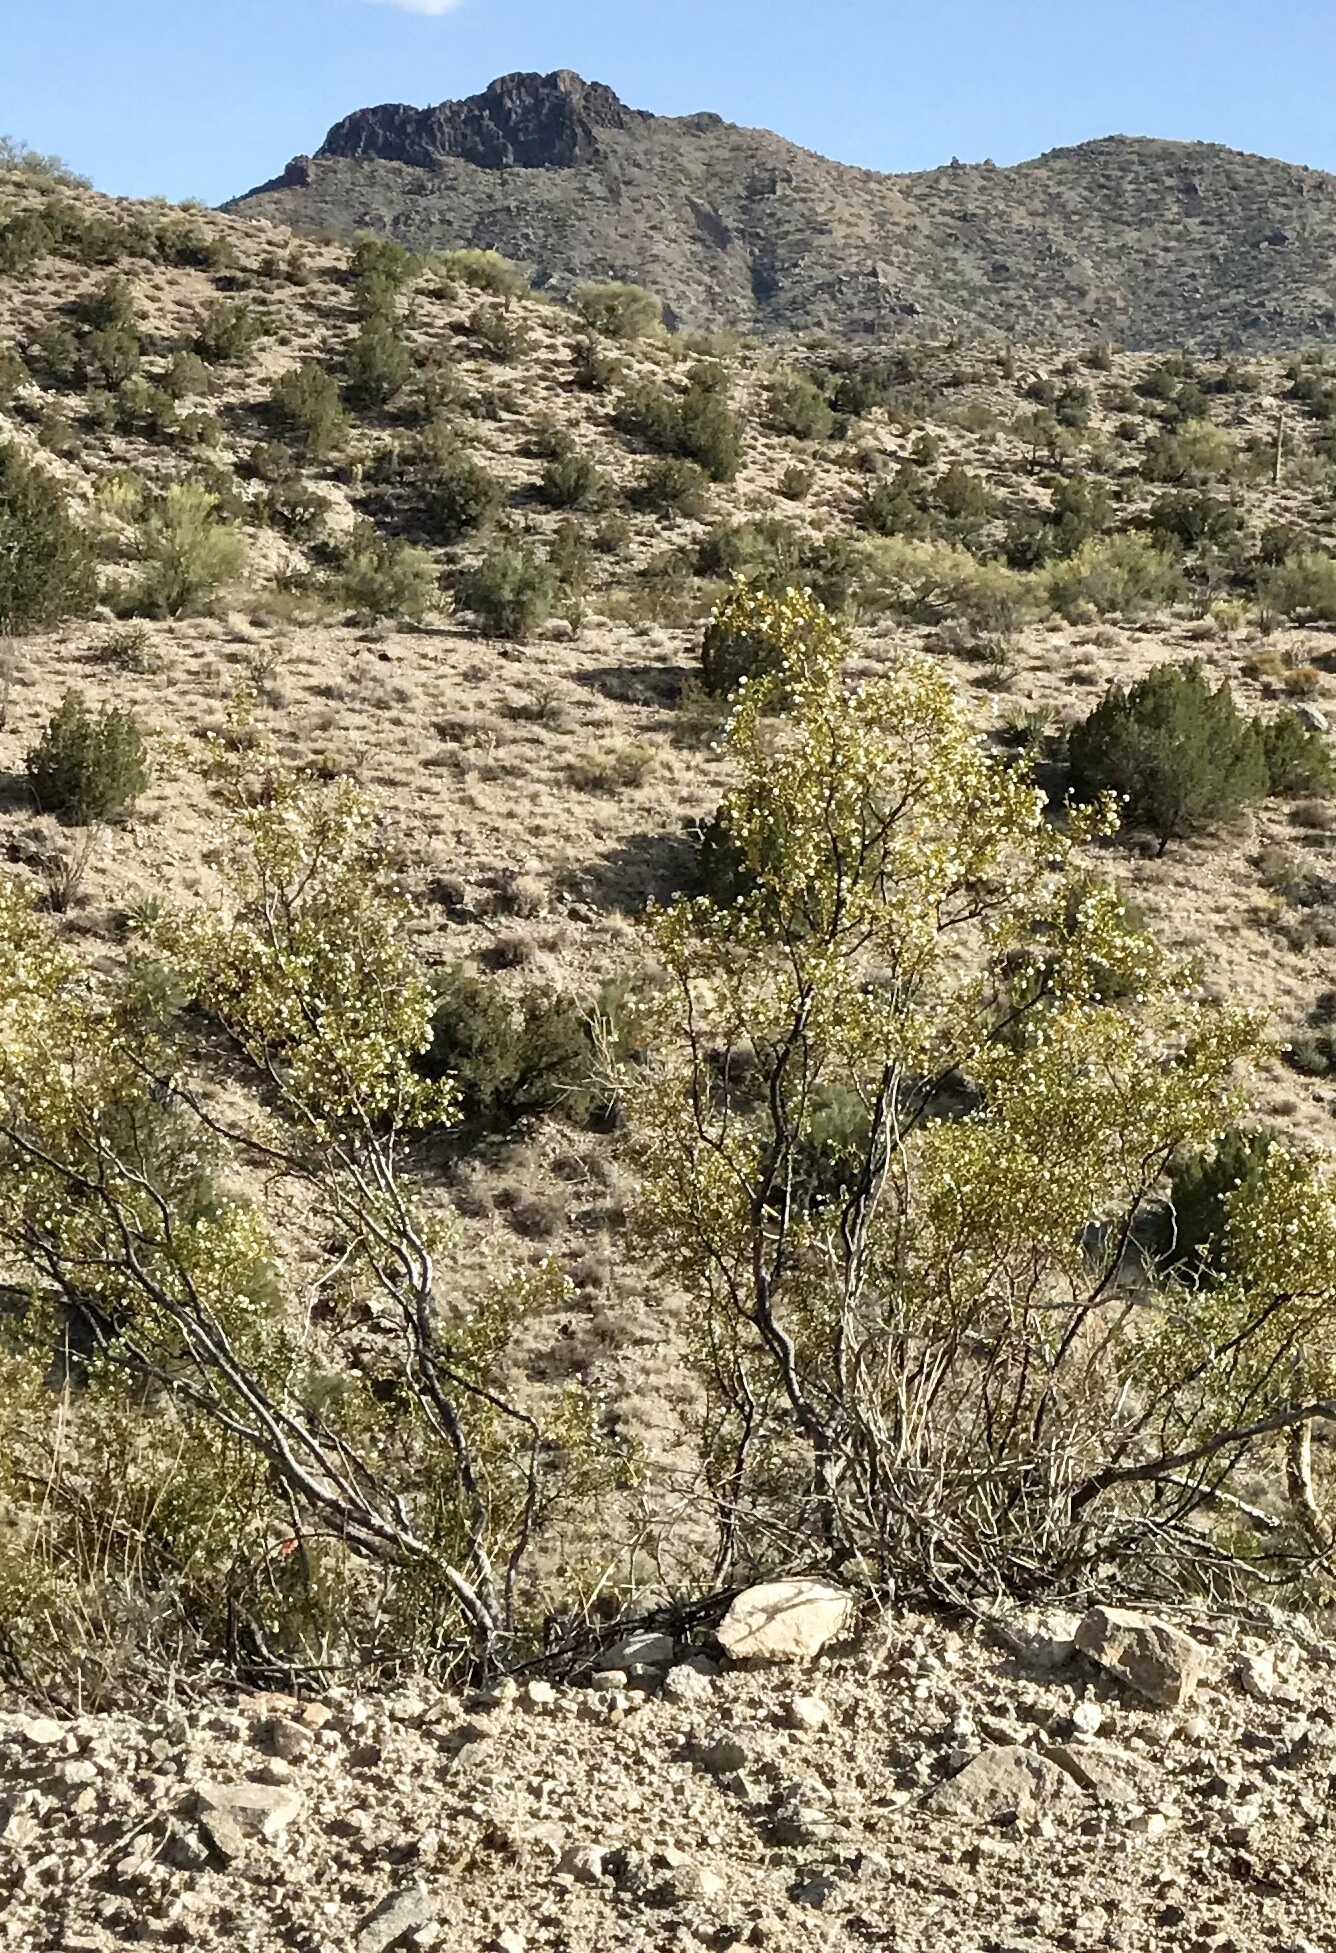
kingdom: Plantae
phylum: Tracheophyta
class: Magnoliopsida
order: Zygophyllales
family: Zygophyllaceae
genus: Larrea
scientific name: Larrea tridentata
